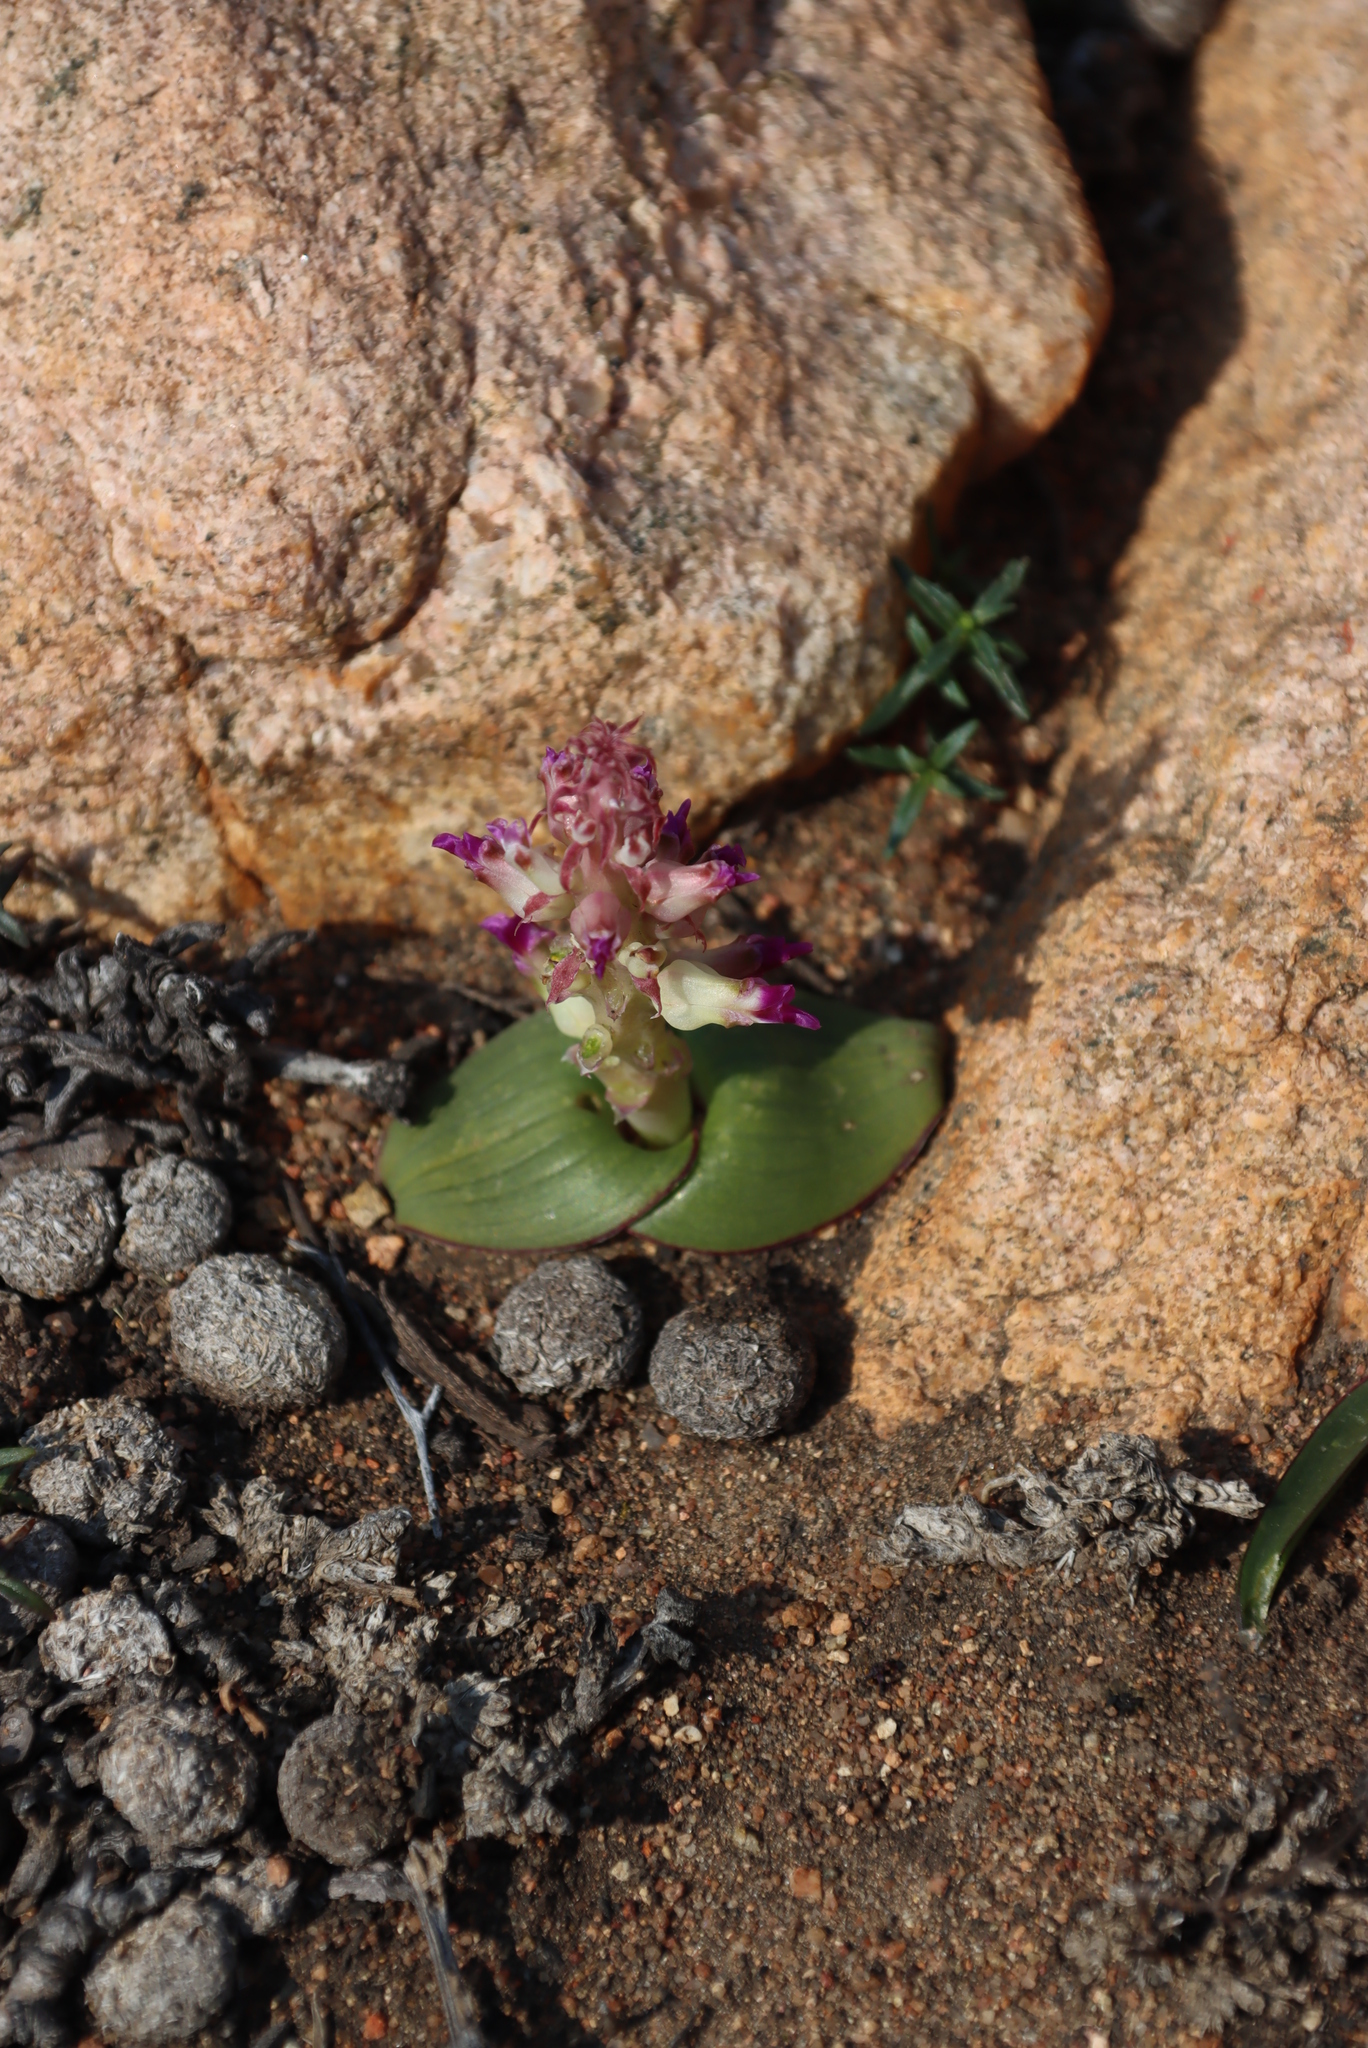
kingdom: Plantae
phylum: Tracheophyta
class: Liliopsida
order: Asparagales
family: Asparagaceae
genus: Lachenalia
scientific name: Lachenalia carnosa
